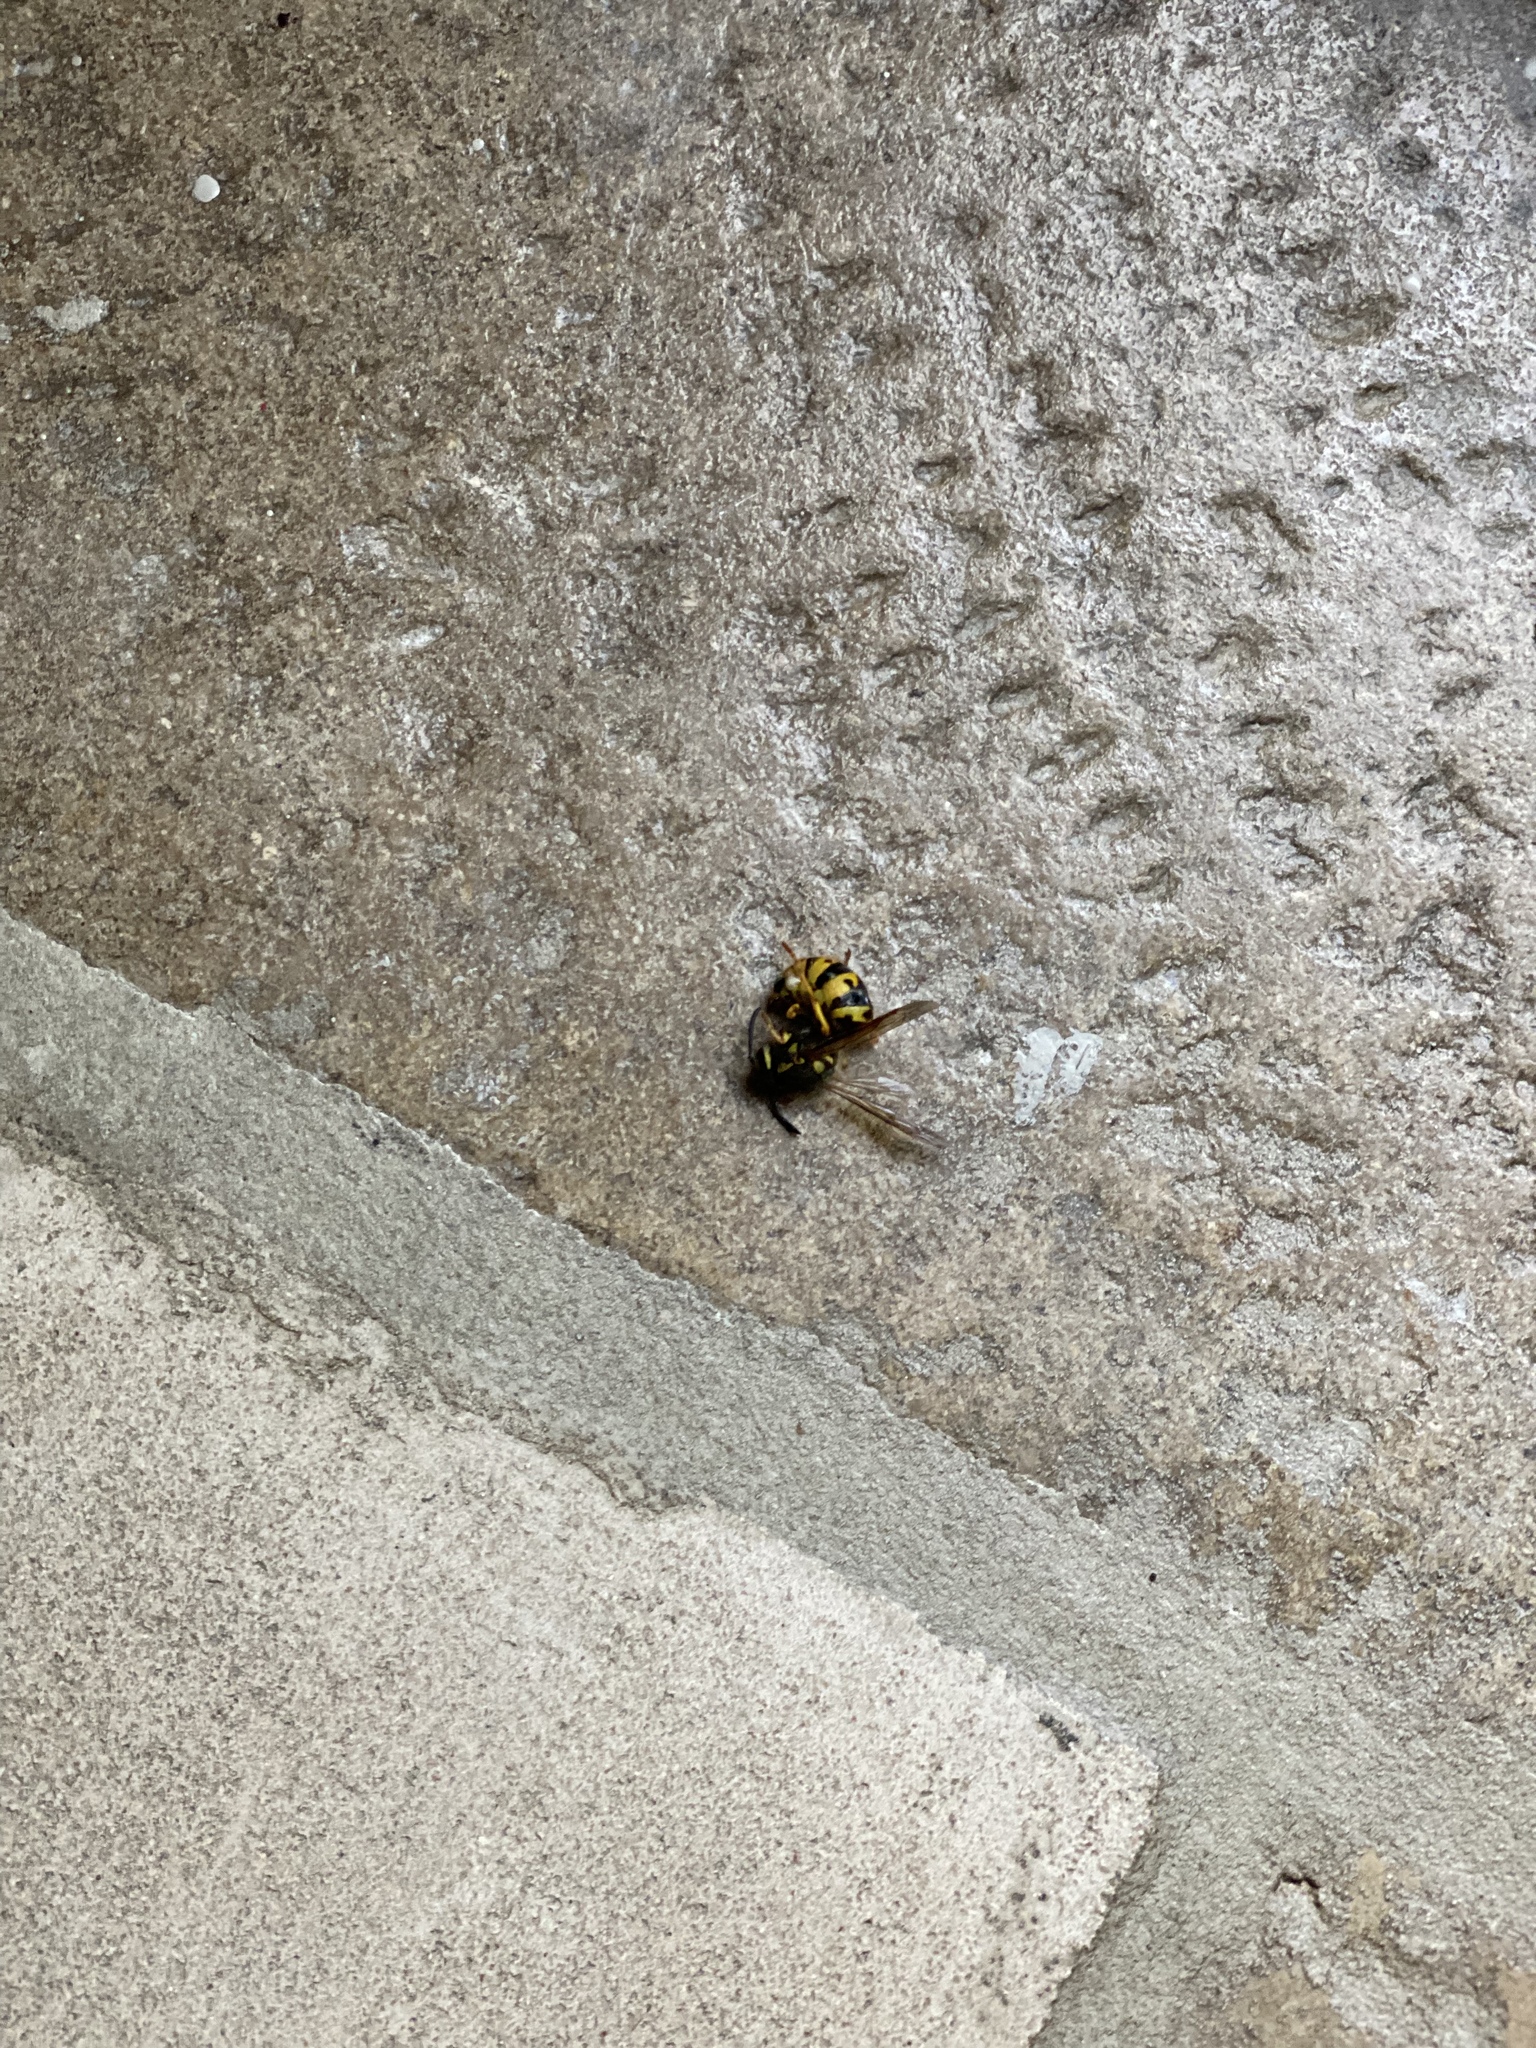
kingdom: Animalia
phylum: Arthropoda
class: Insecta
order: Hymenoptera
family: Vespidae
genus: Vespula
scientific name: Vespula germanica
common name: German wasp
